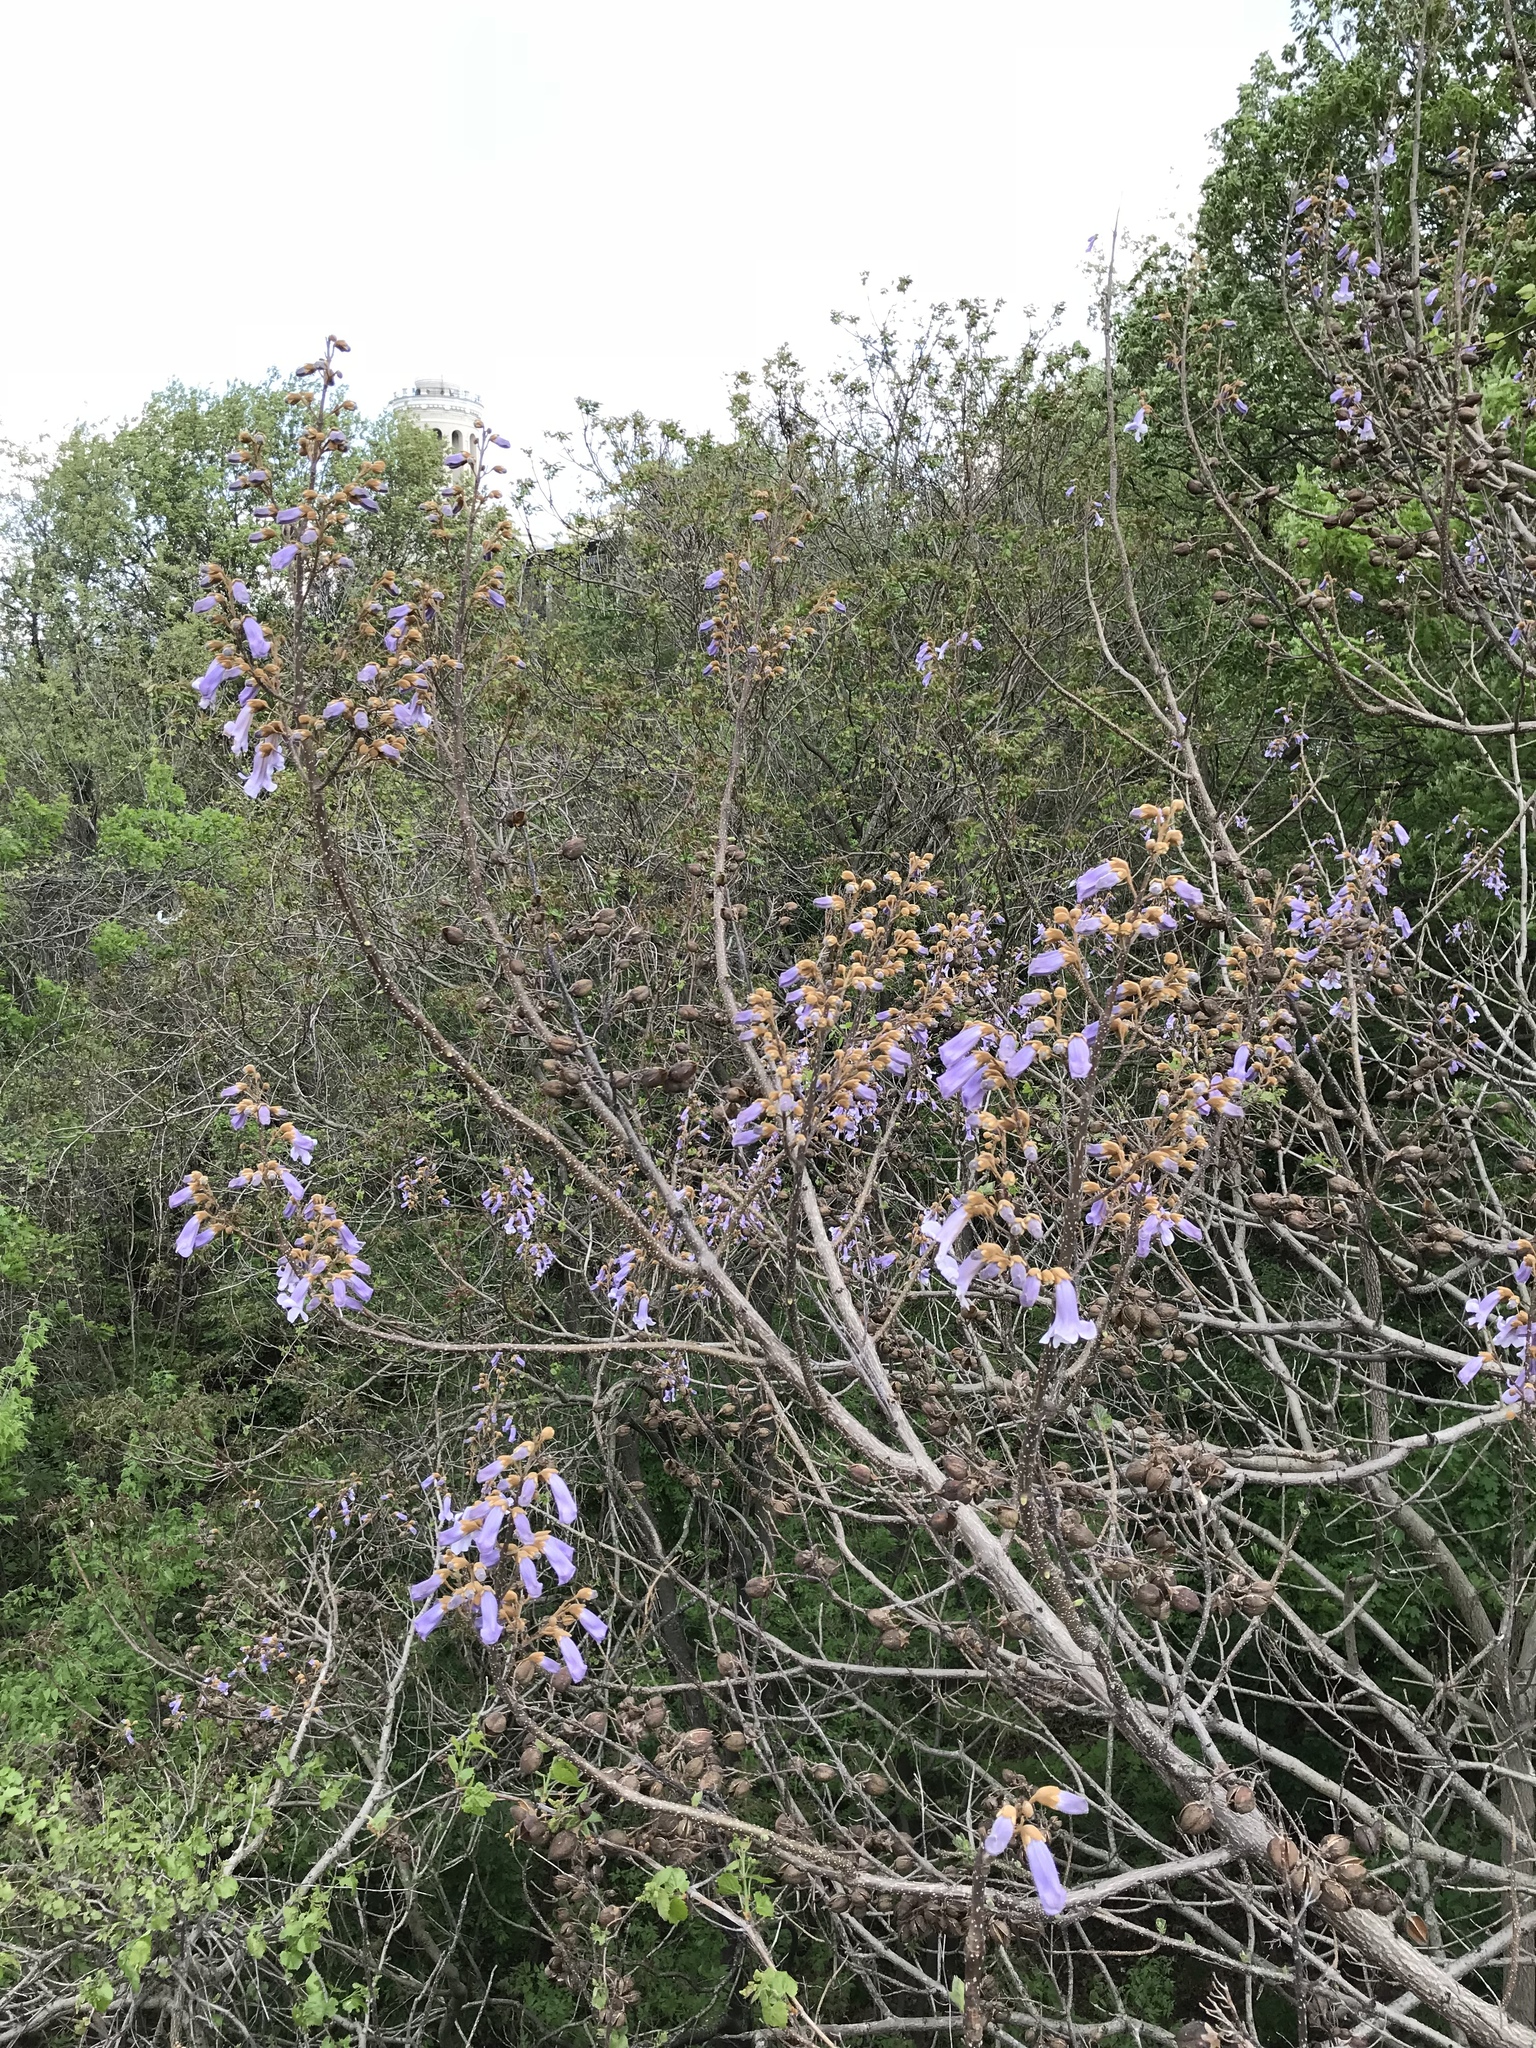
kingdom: Plantae
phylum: Tracheophyta
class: Magnoliopsida
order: Lamiales
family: Paulowniaceae
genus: Paulownia
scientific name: Paulownia tomentosa
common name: Foxglove-tree
